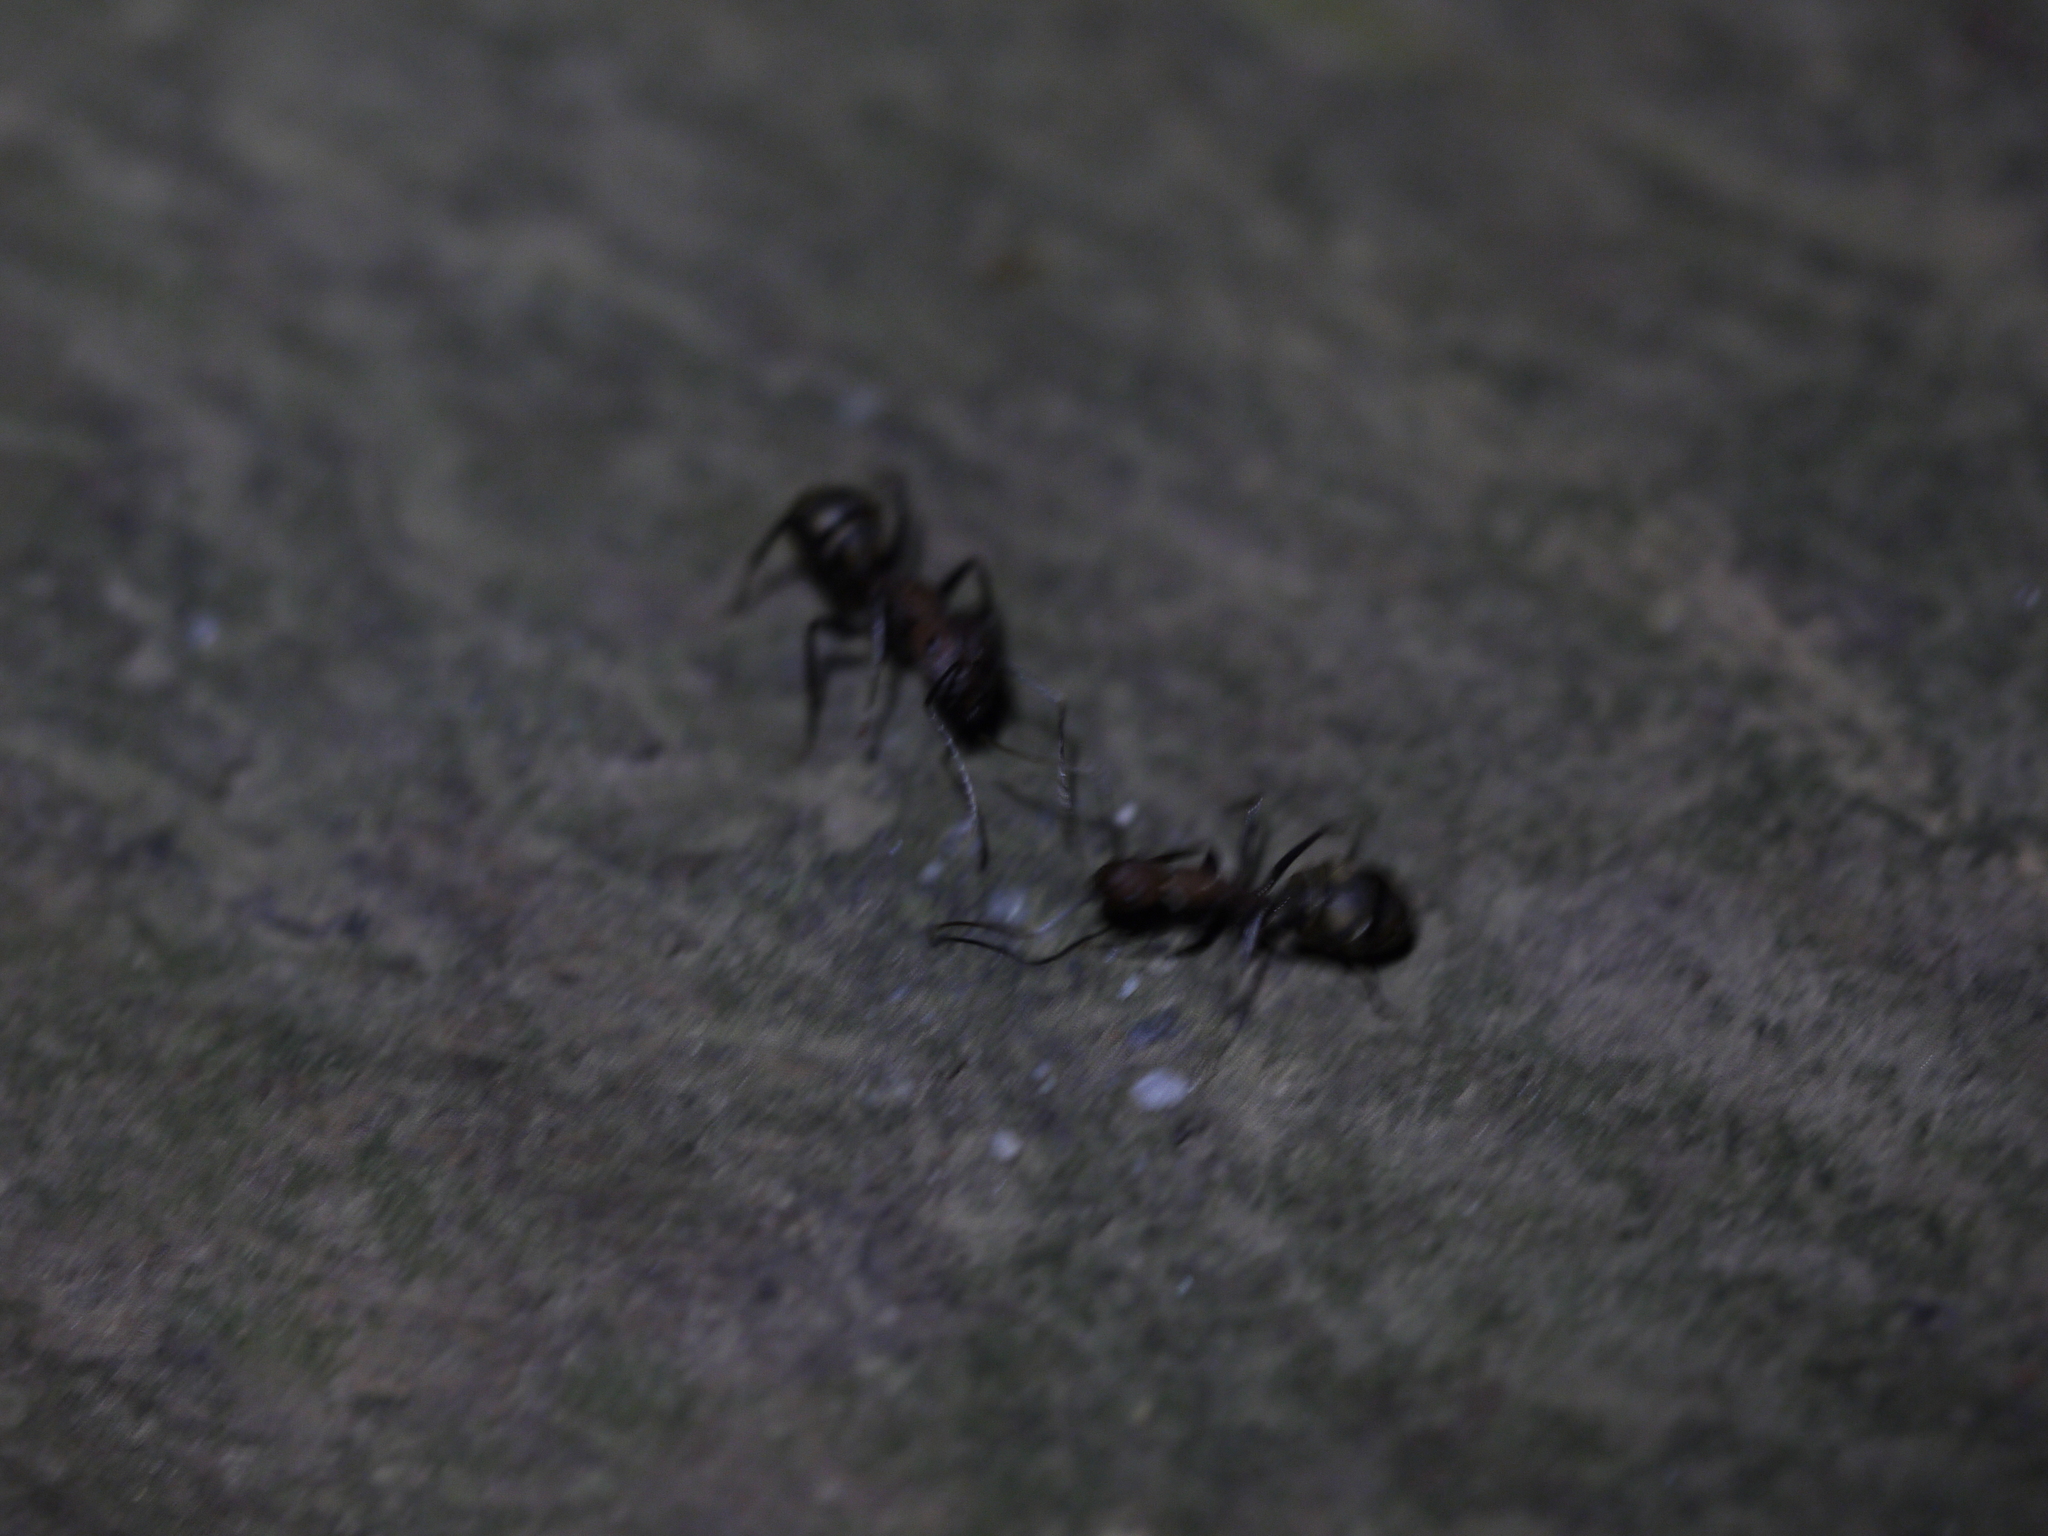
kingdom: Animalia
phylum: Arthropoda
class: Insecta
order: Hymenoptera
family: Formicidae
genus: Camponotus
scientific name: Camponotus habereri
